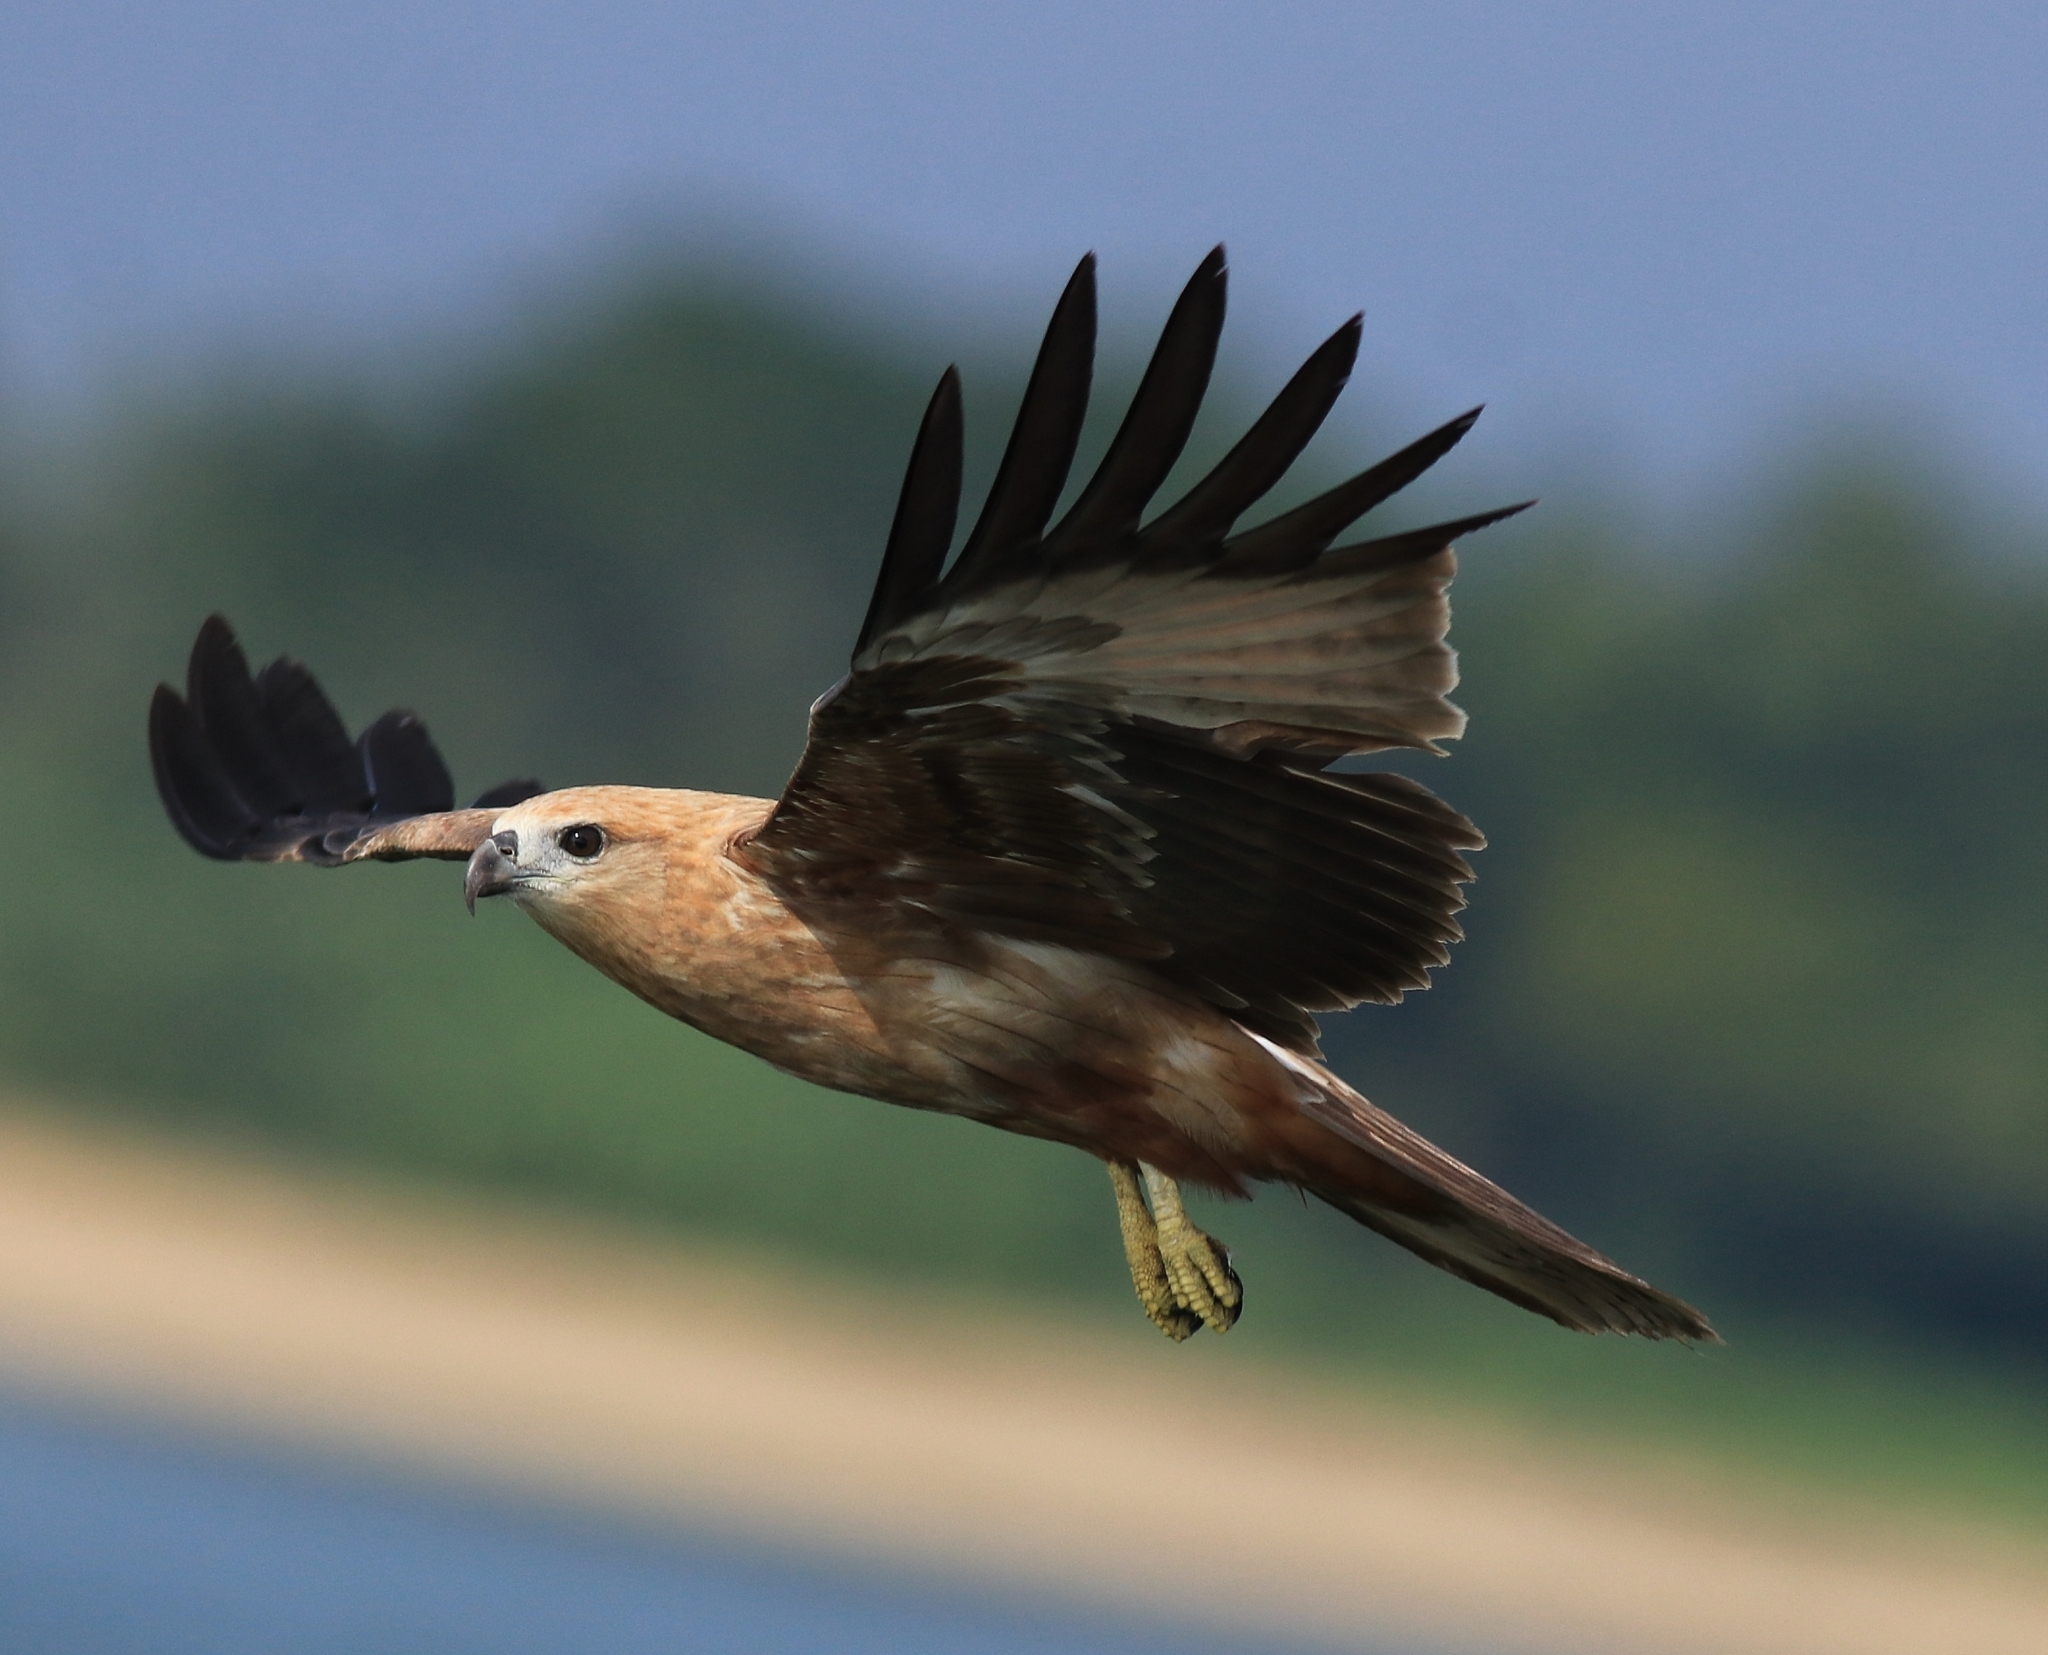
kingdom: Animalia
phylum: Chordata
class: Aves
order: Accipitriformes
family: Accipitridae
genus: Haliastur
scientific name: Haliastur indus
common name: Brahminy kite
